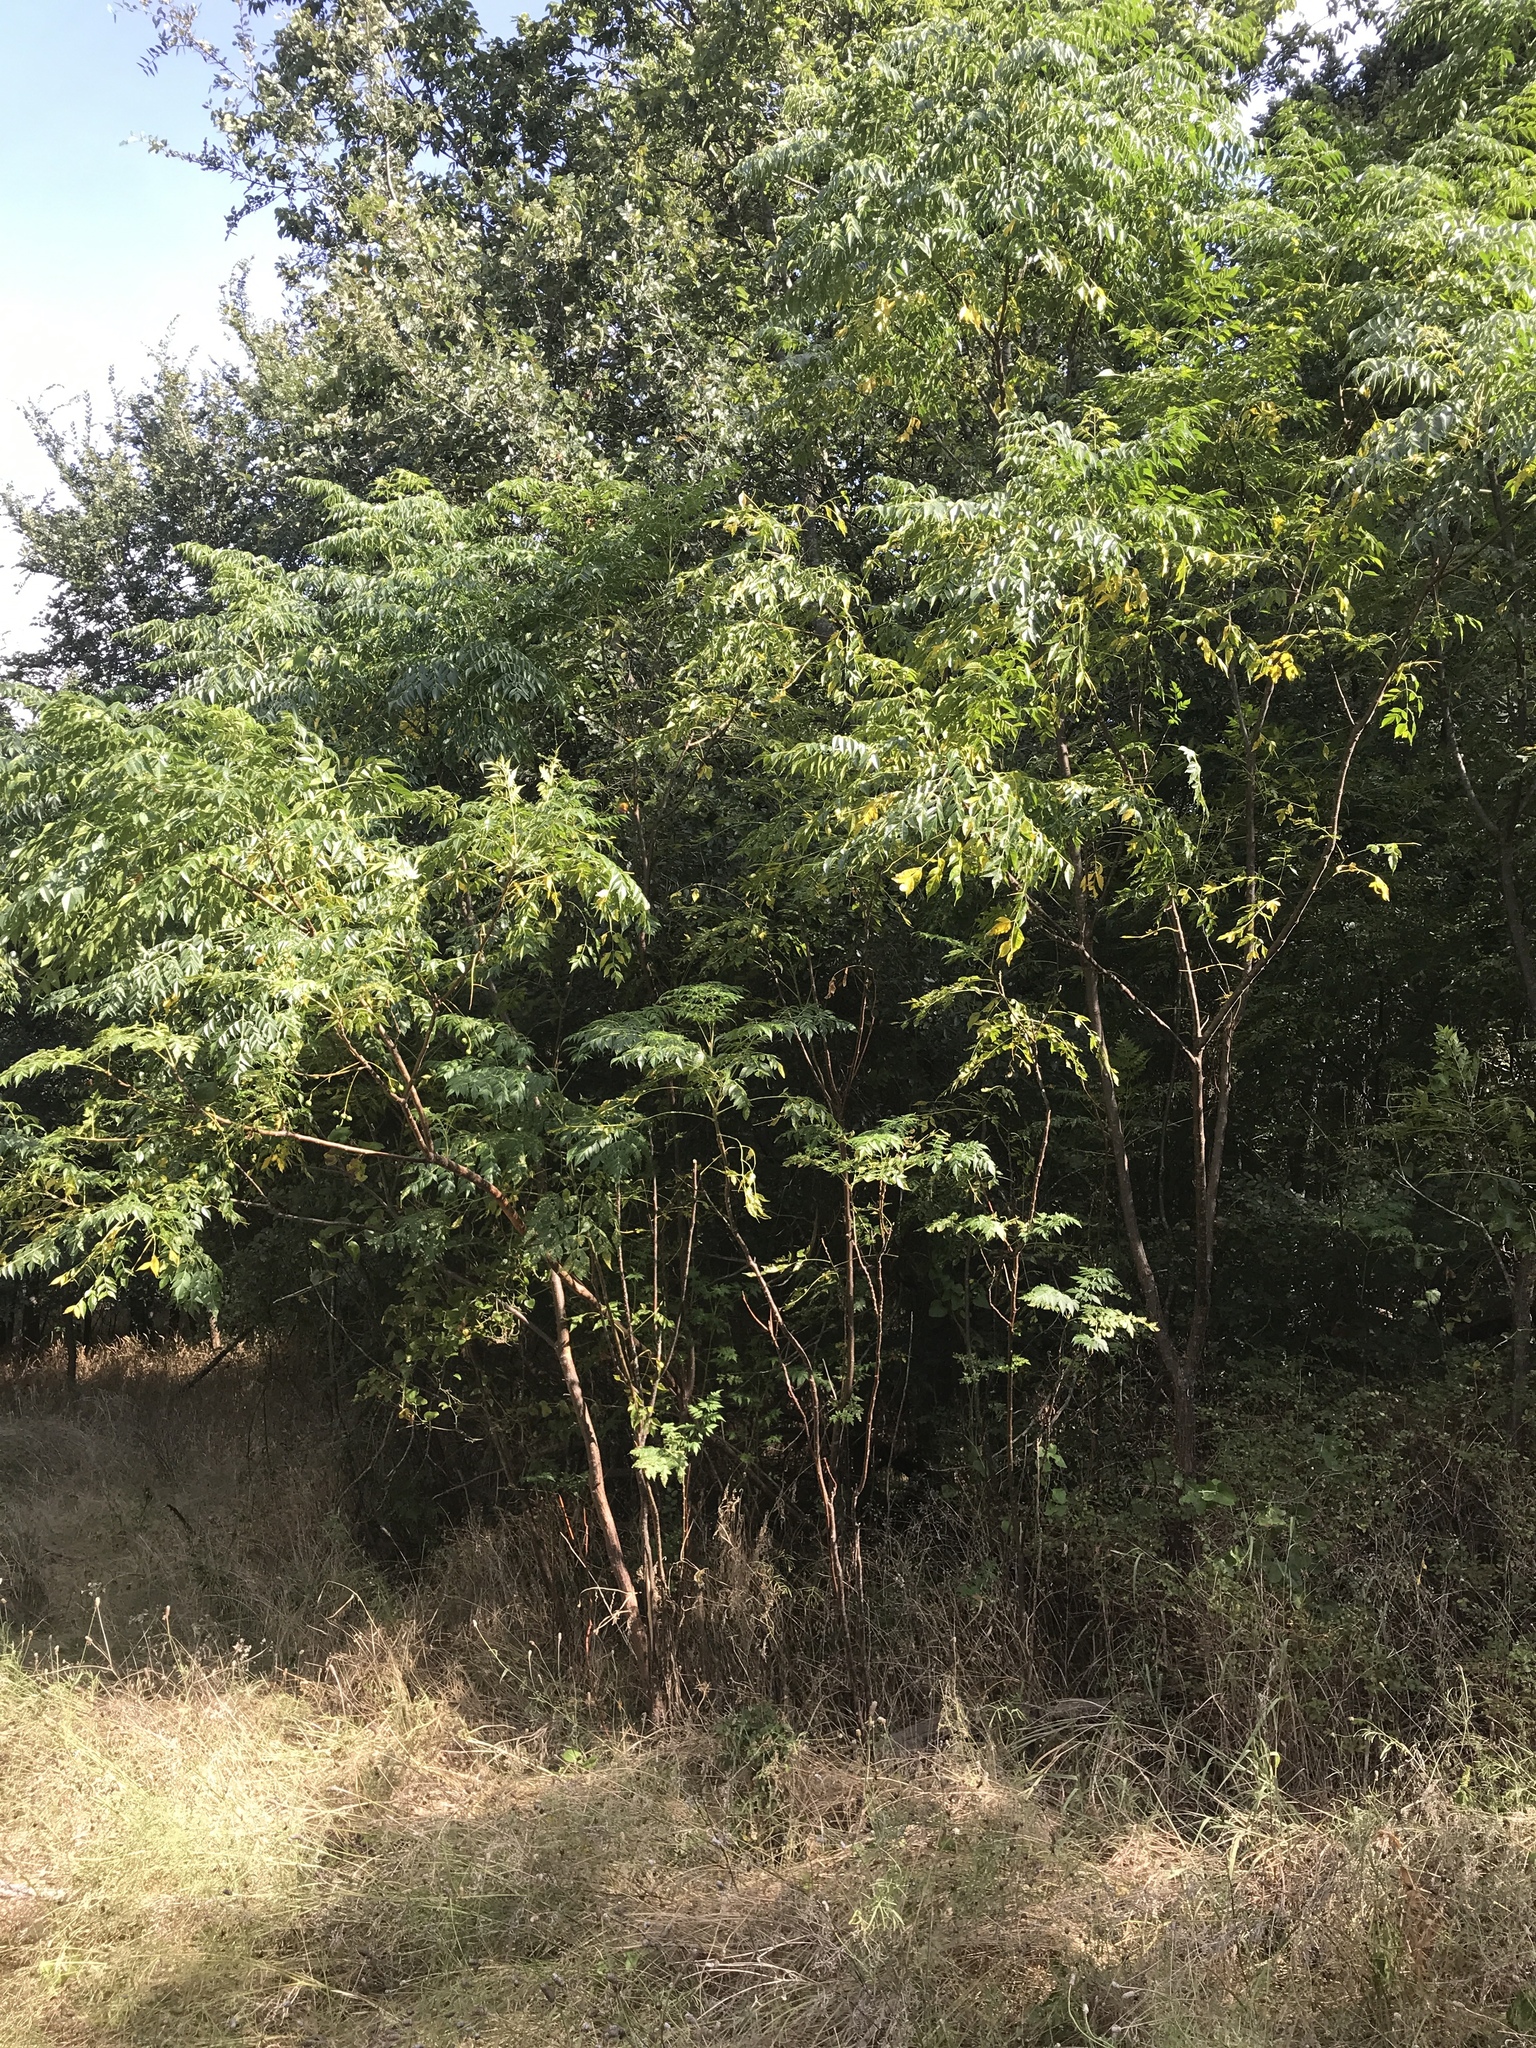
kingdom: Plantae
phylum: Tracheophyta
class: Magnoliopsida
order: Sapindales
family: Meliaceae
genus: Melia
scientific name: Melia azedarach
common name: Chinaberrytree
